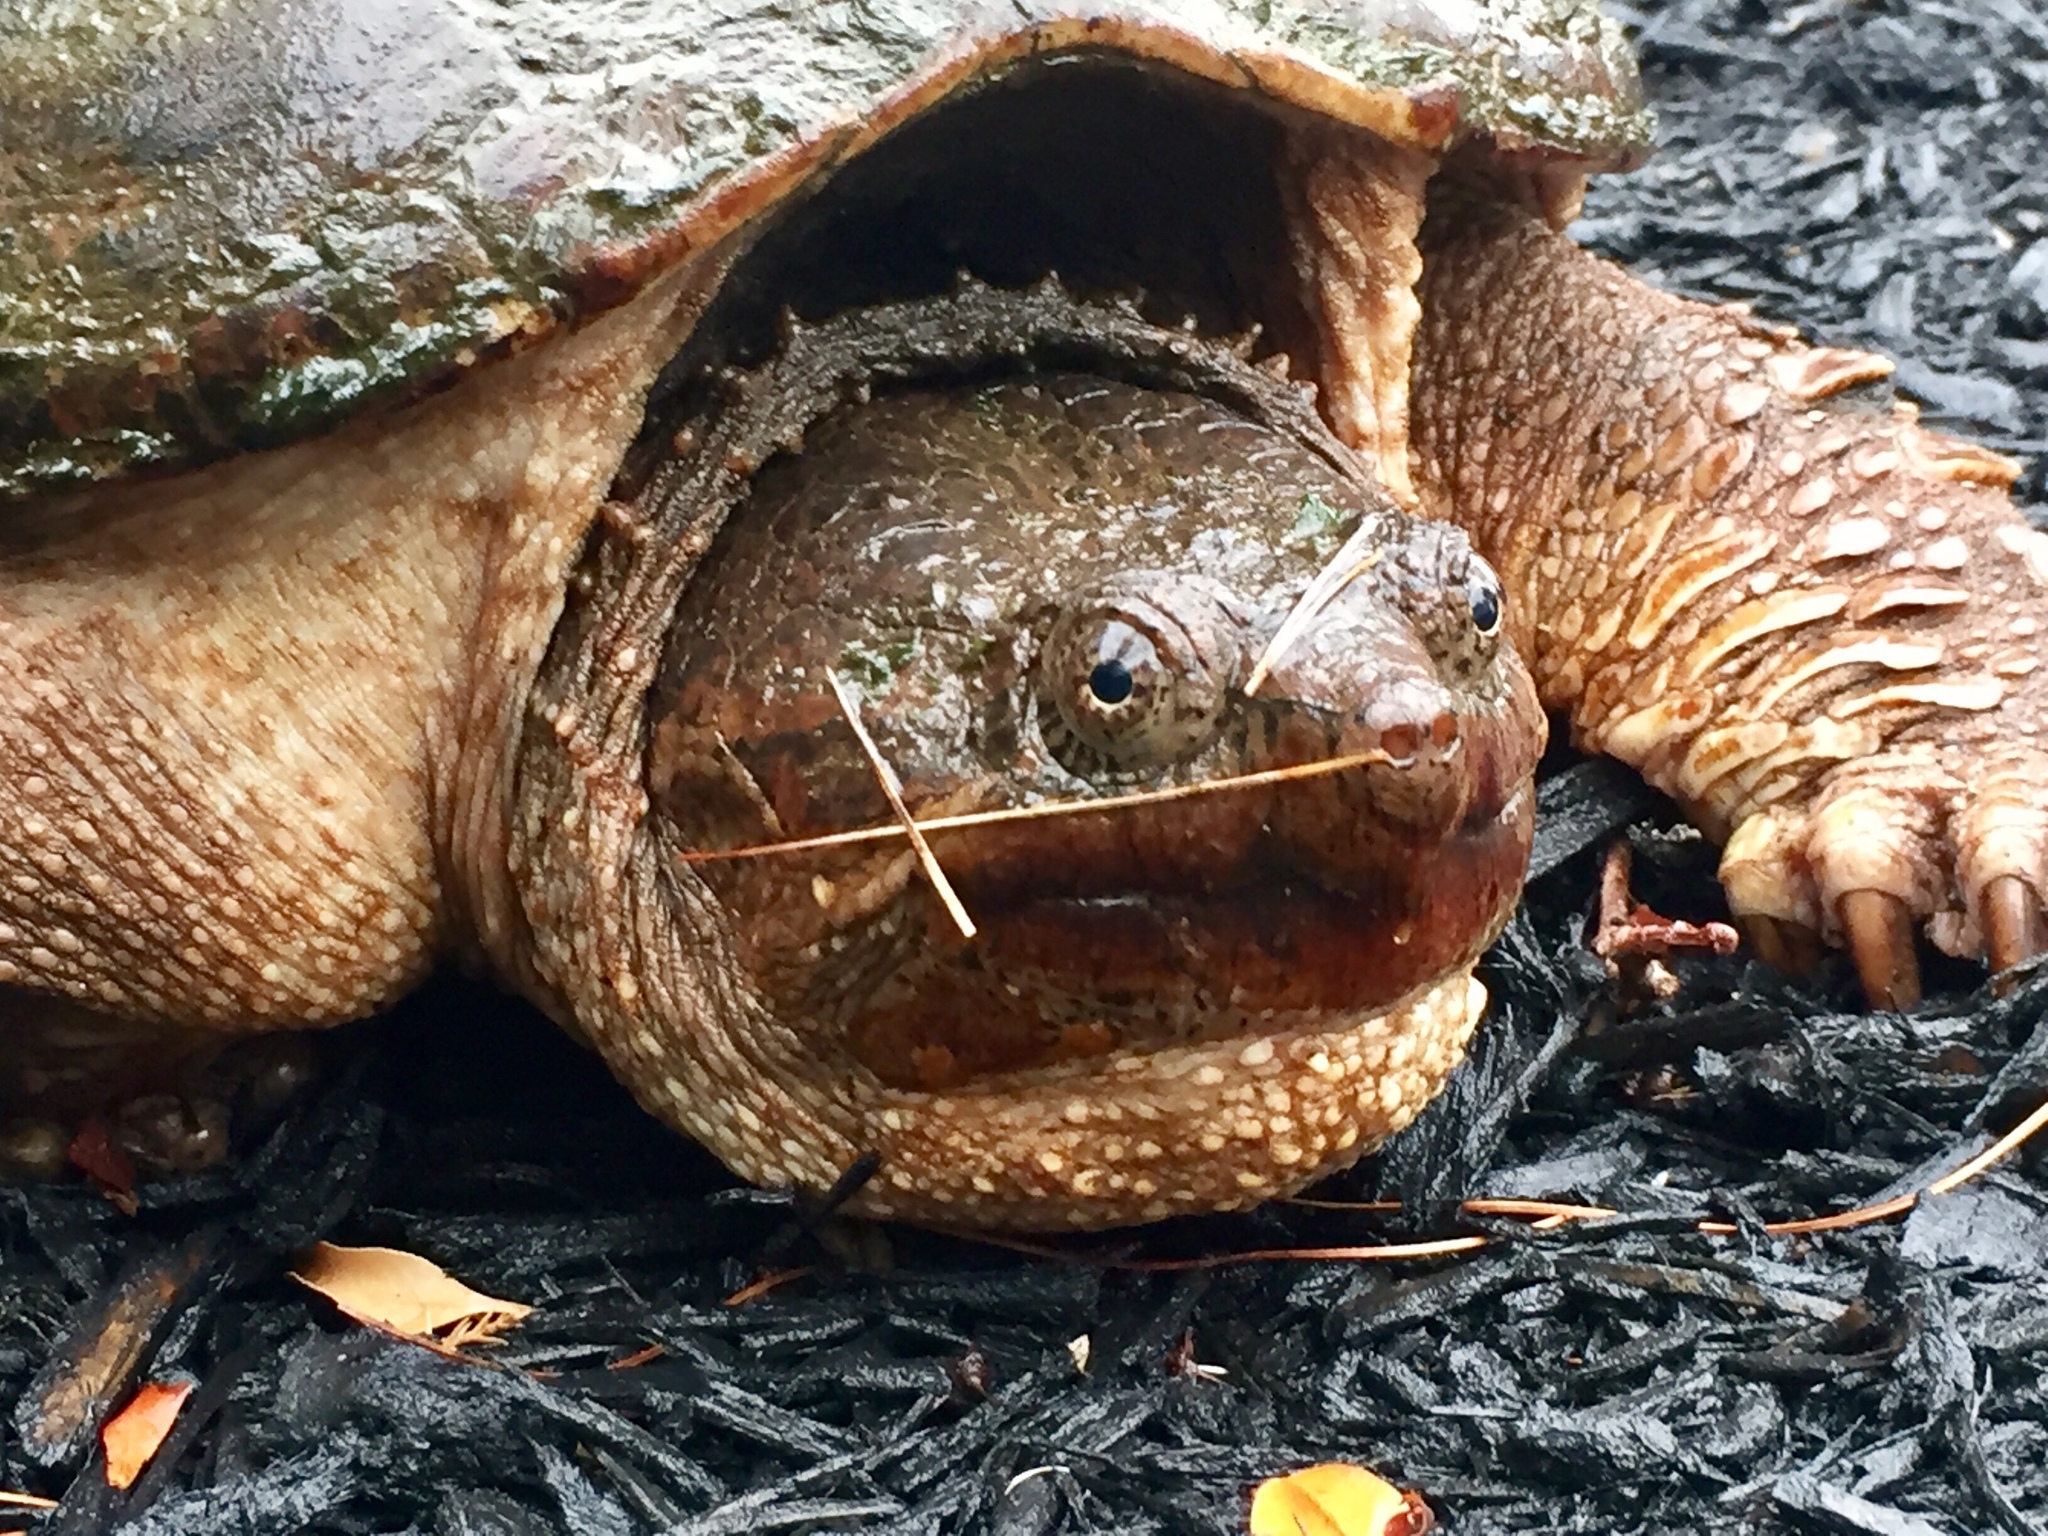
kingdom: Animalia
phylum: Chordata
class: Testudines
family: Chelydridae
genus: Chelydra
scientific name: Chelydra serpentina
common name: Common snapping turtle
